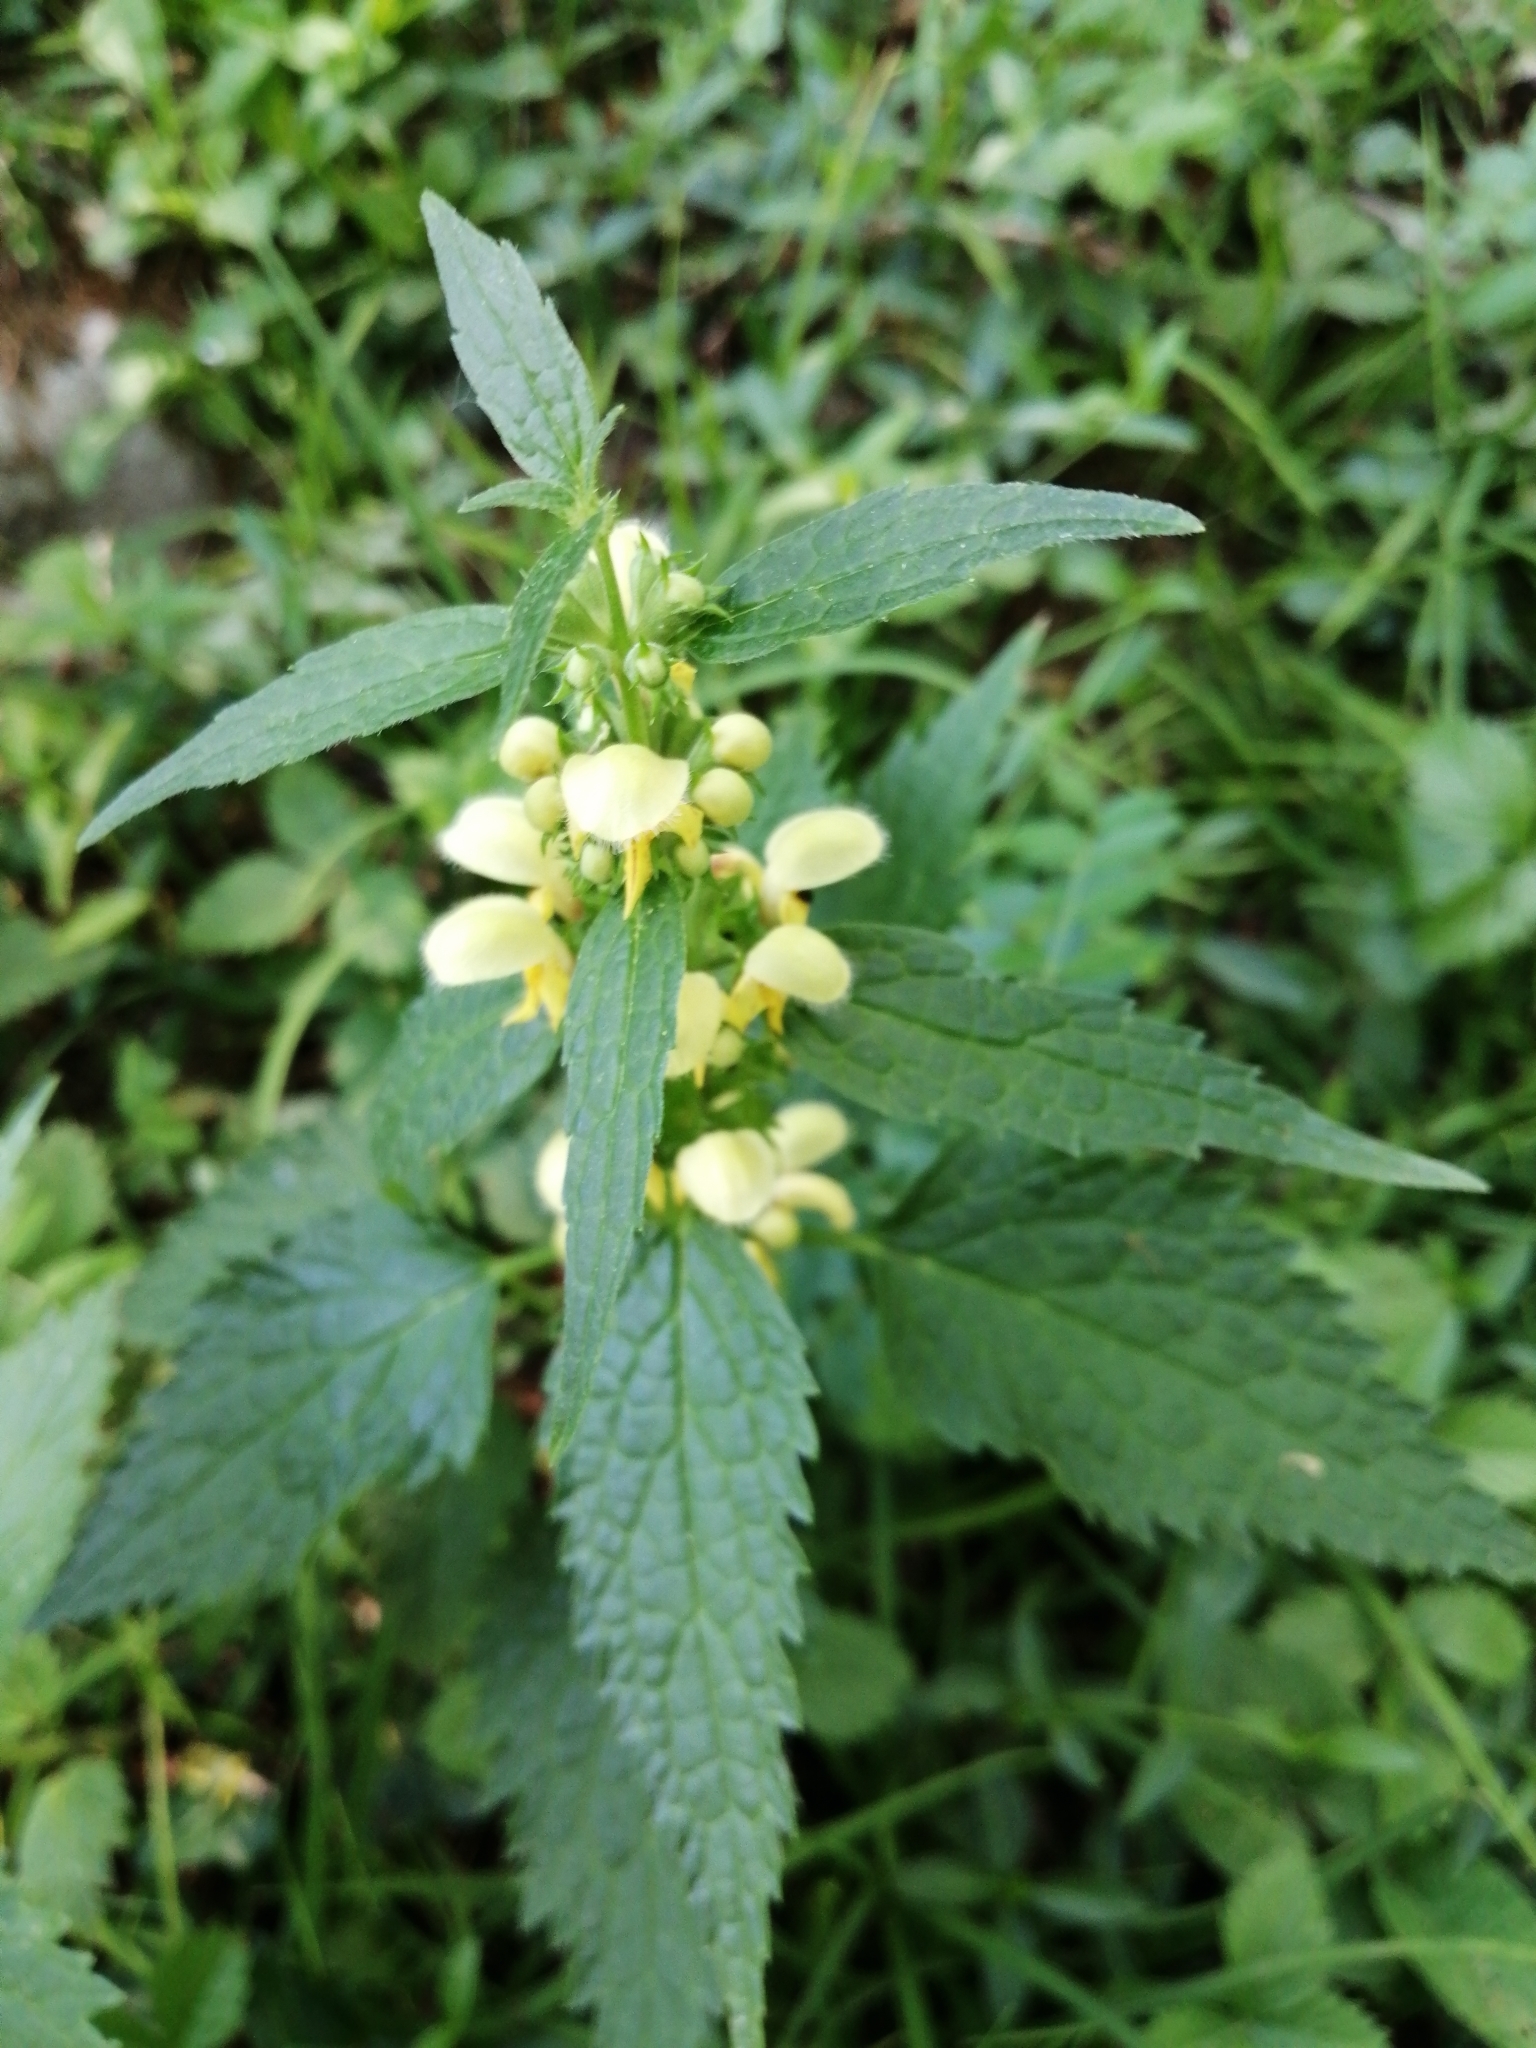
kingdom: Plantae
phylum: Tracheophyta
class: Magnoliopsida
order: Lamiales
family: Lamiaceae
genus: Lamium
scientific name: Lamium galeobdolon
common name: Yellow archangel
